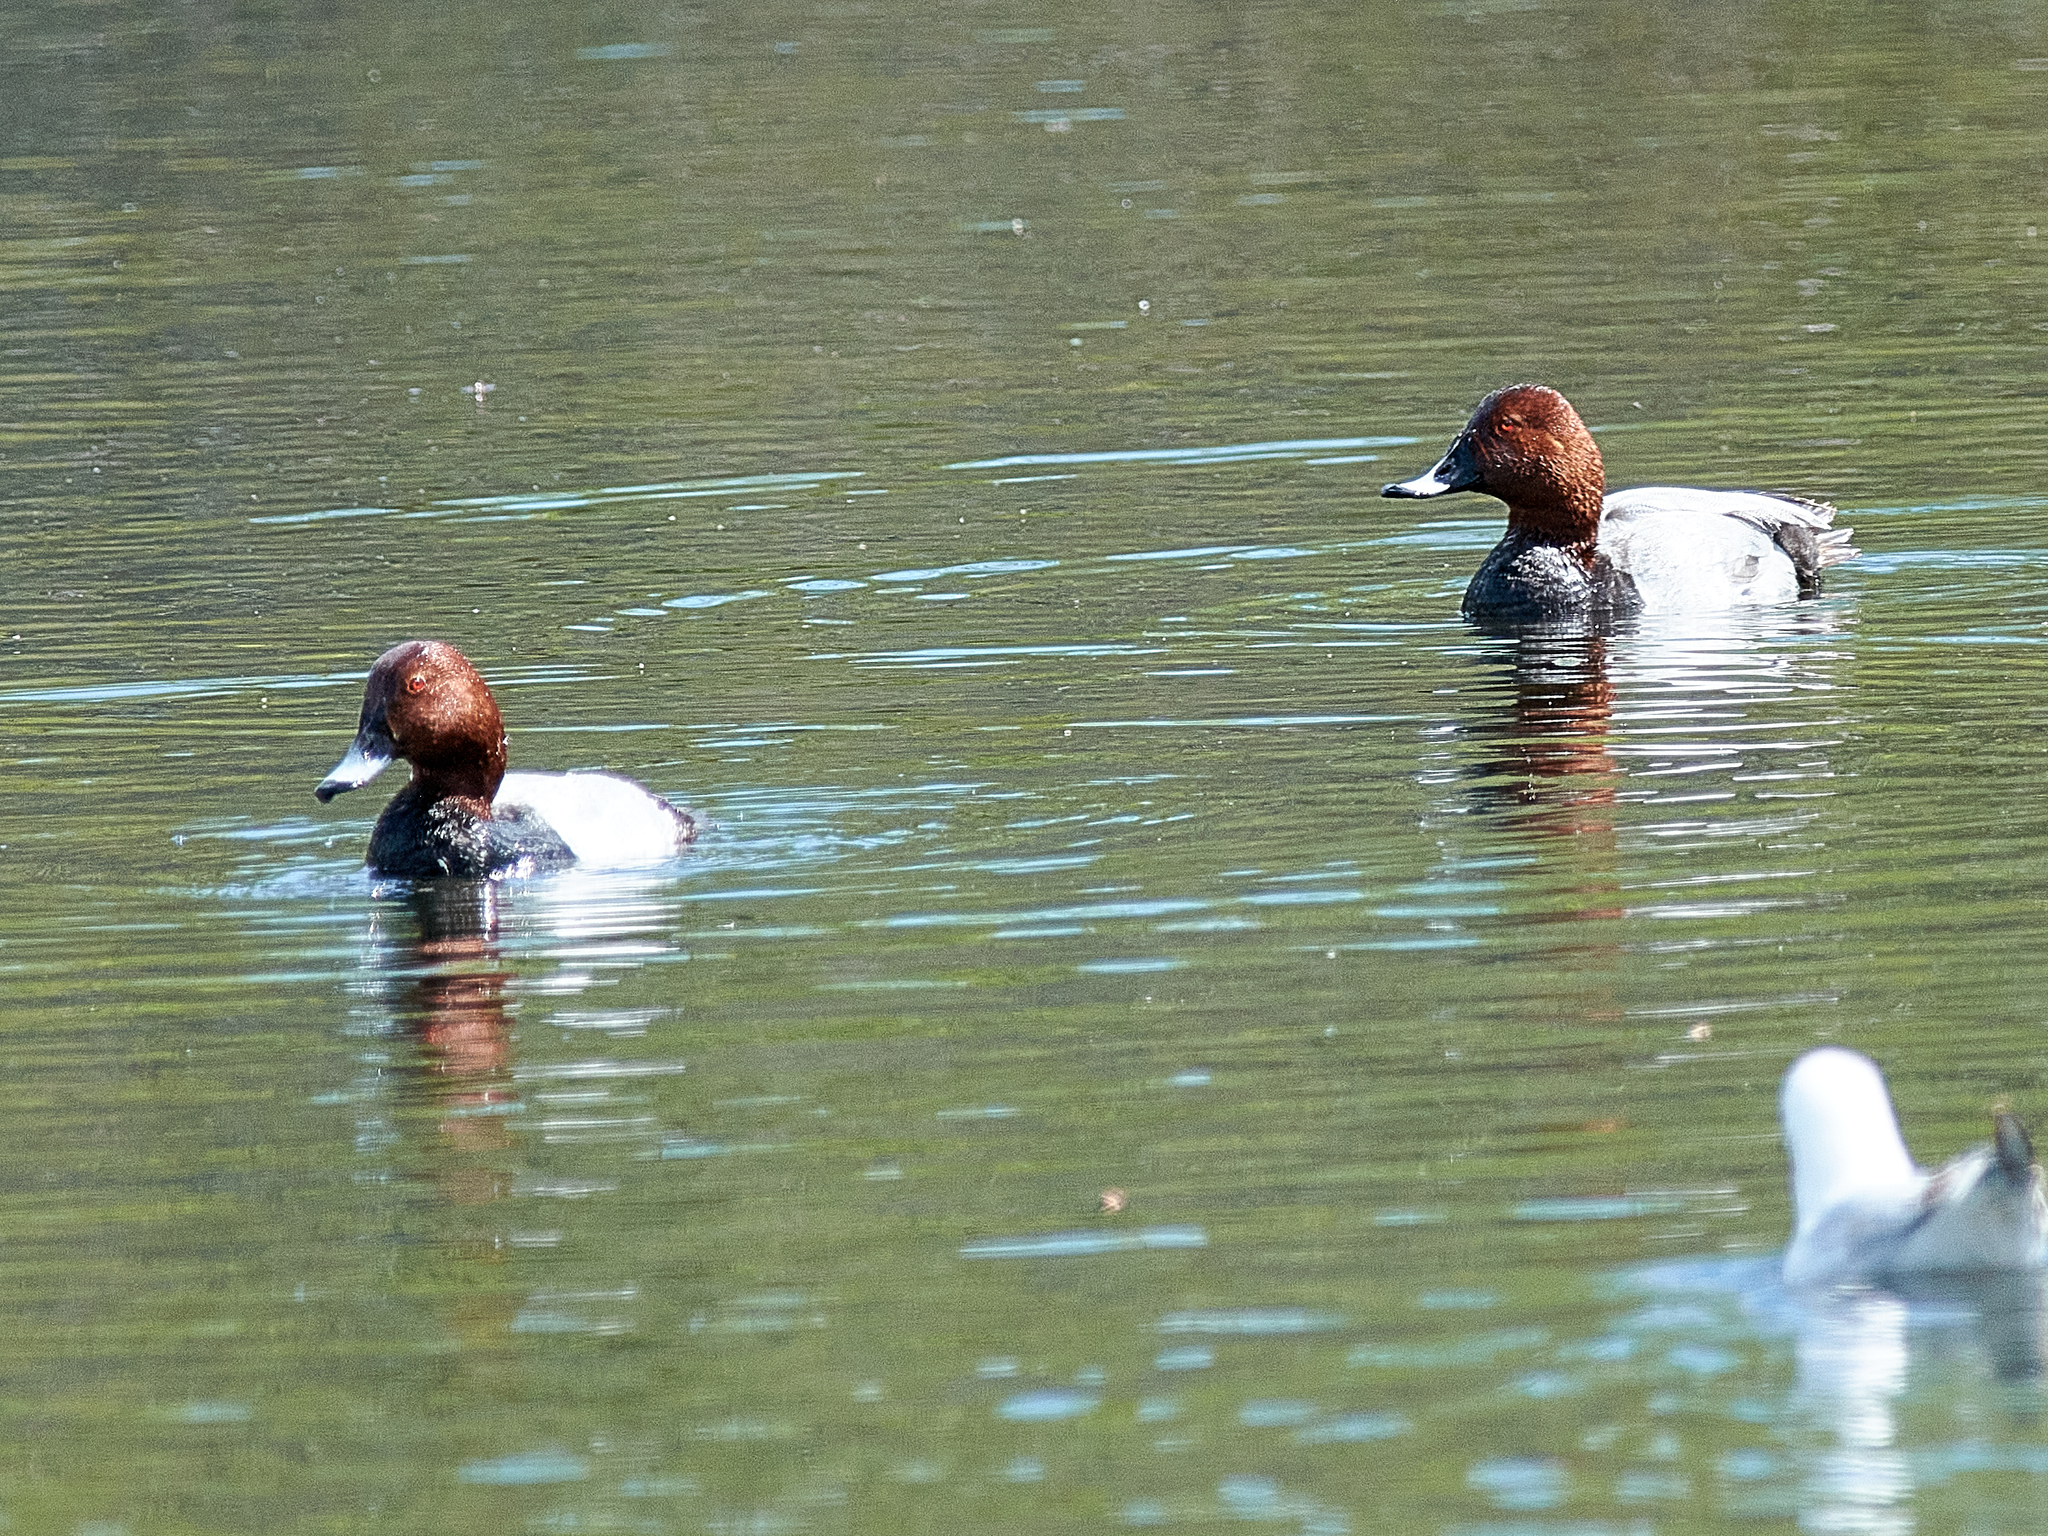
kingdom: Animalia
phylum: Chordata
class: Aves
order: Anseriformes
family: Anatidae
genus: Aythya
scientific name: Aythya ferina
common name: Common pochard
